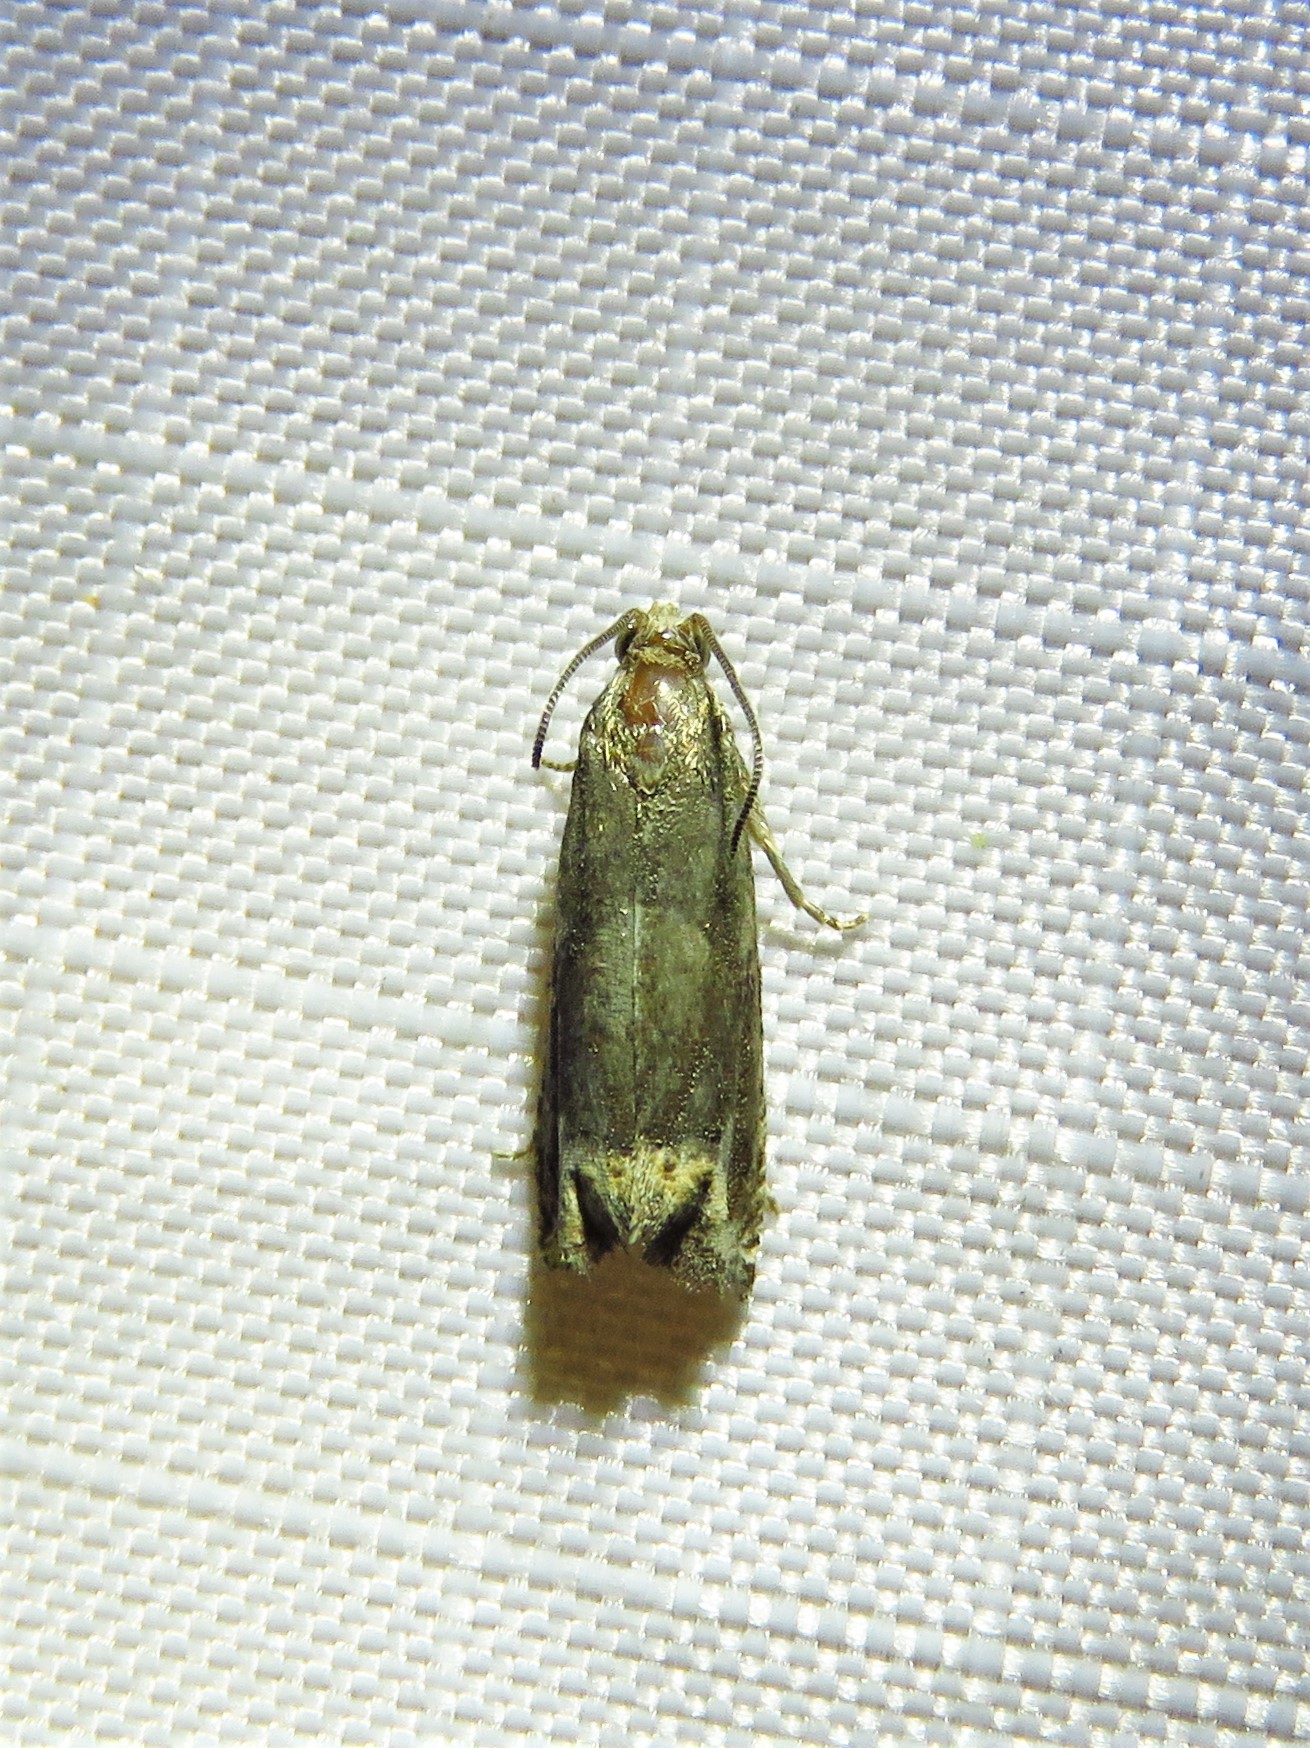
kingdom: Animalia
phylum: Arthropoda
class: Insecta
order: Lepidoptera
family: Tortricidae
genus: Epiblema
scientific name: Epiblema strenuana
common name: Ragweed borer moth
